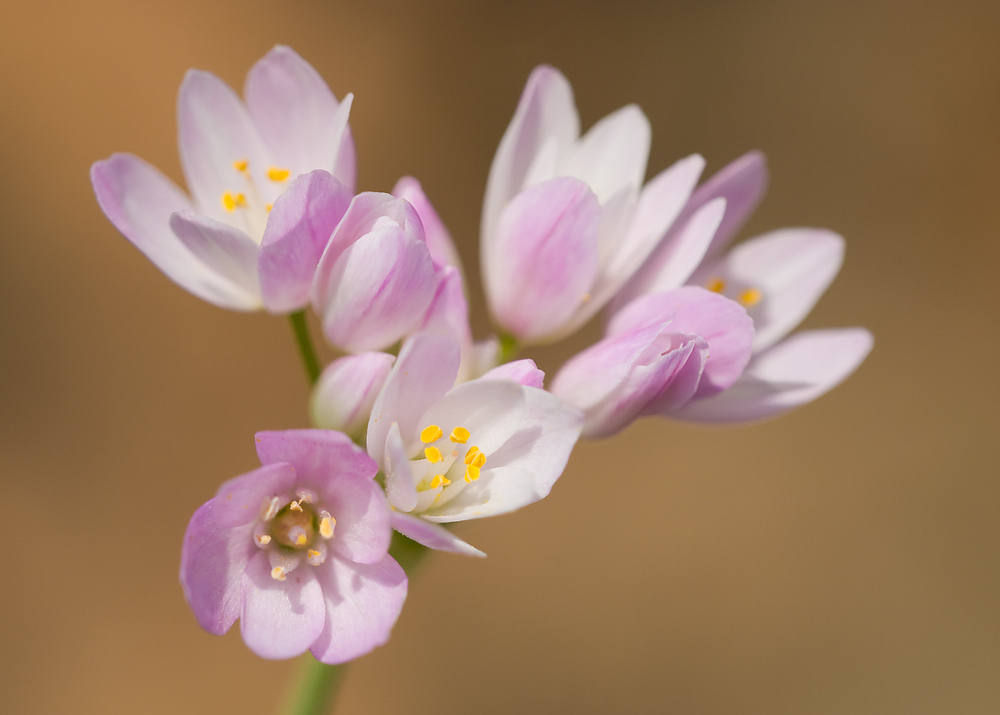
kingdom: Plantae
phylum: Tracheophyta
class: Liliopsida
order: Asparagales
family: Amaryllidaceae
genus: Allium
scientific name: Allium roseum
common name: Rosy garlic
